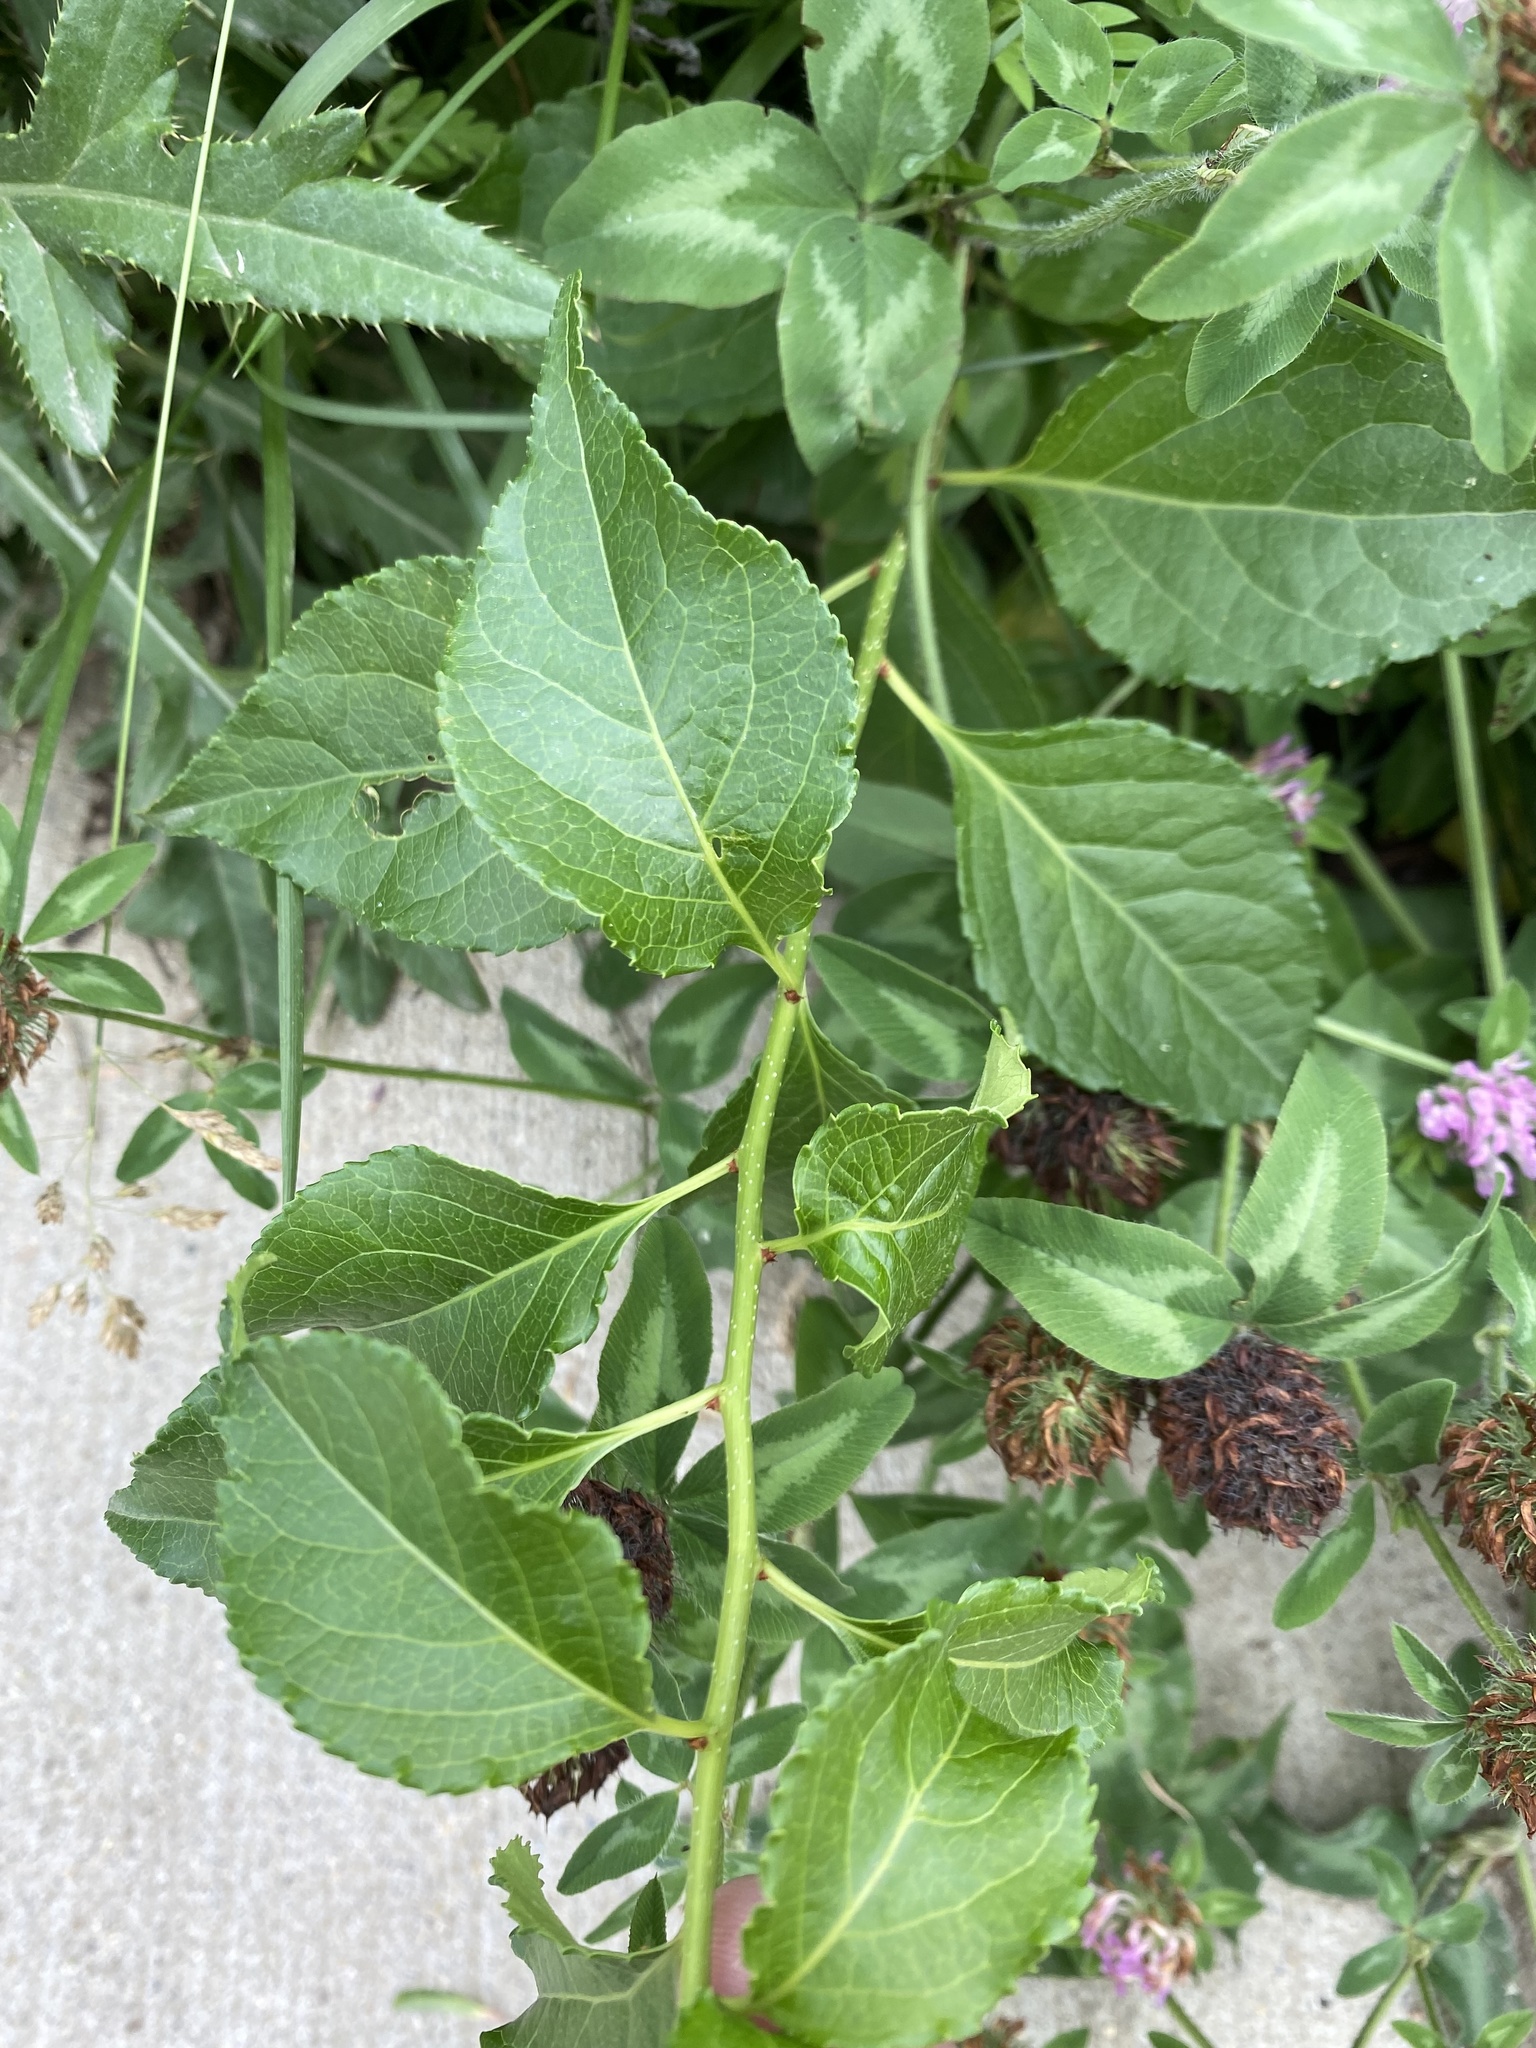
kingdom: Plantae
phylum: Tracheophyta
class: Magnoliopsida
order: Celastrales
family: Celastraceae
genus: Celastrus
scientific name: Celastrus orbiculatus
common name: Oriental bittersweet
